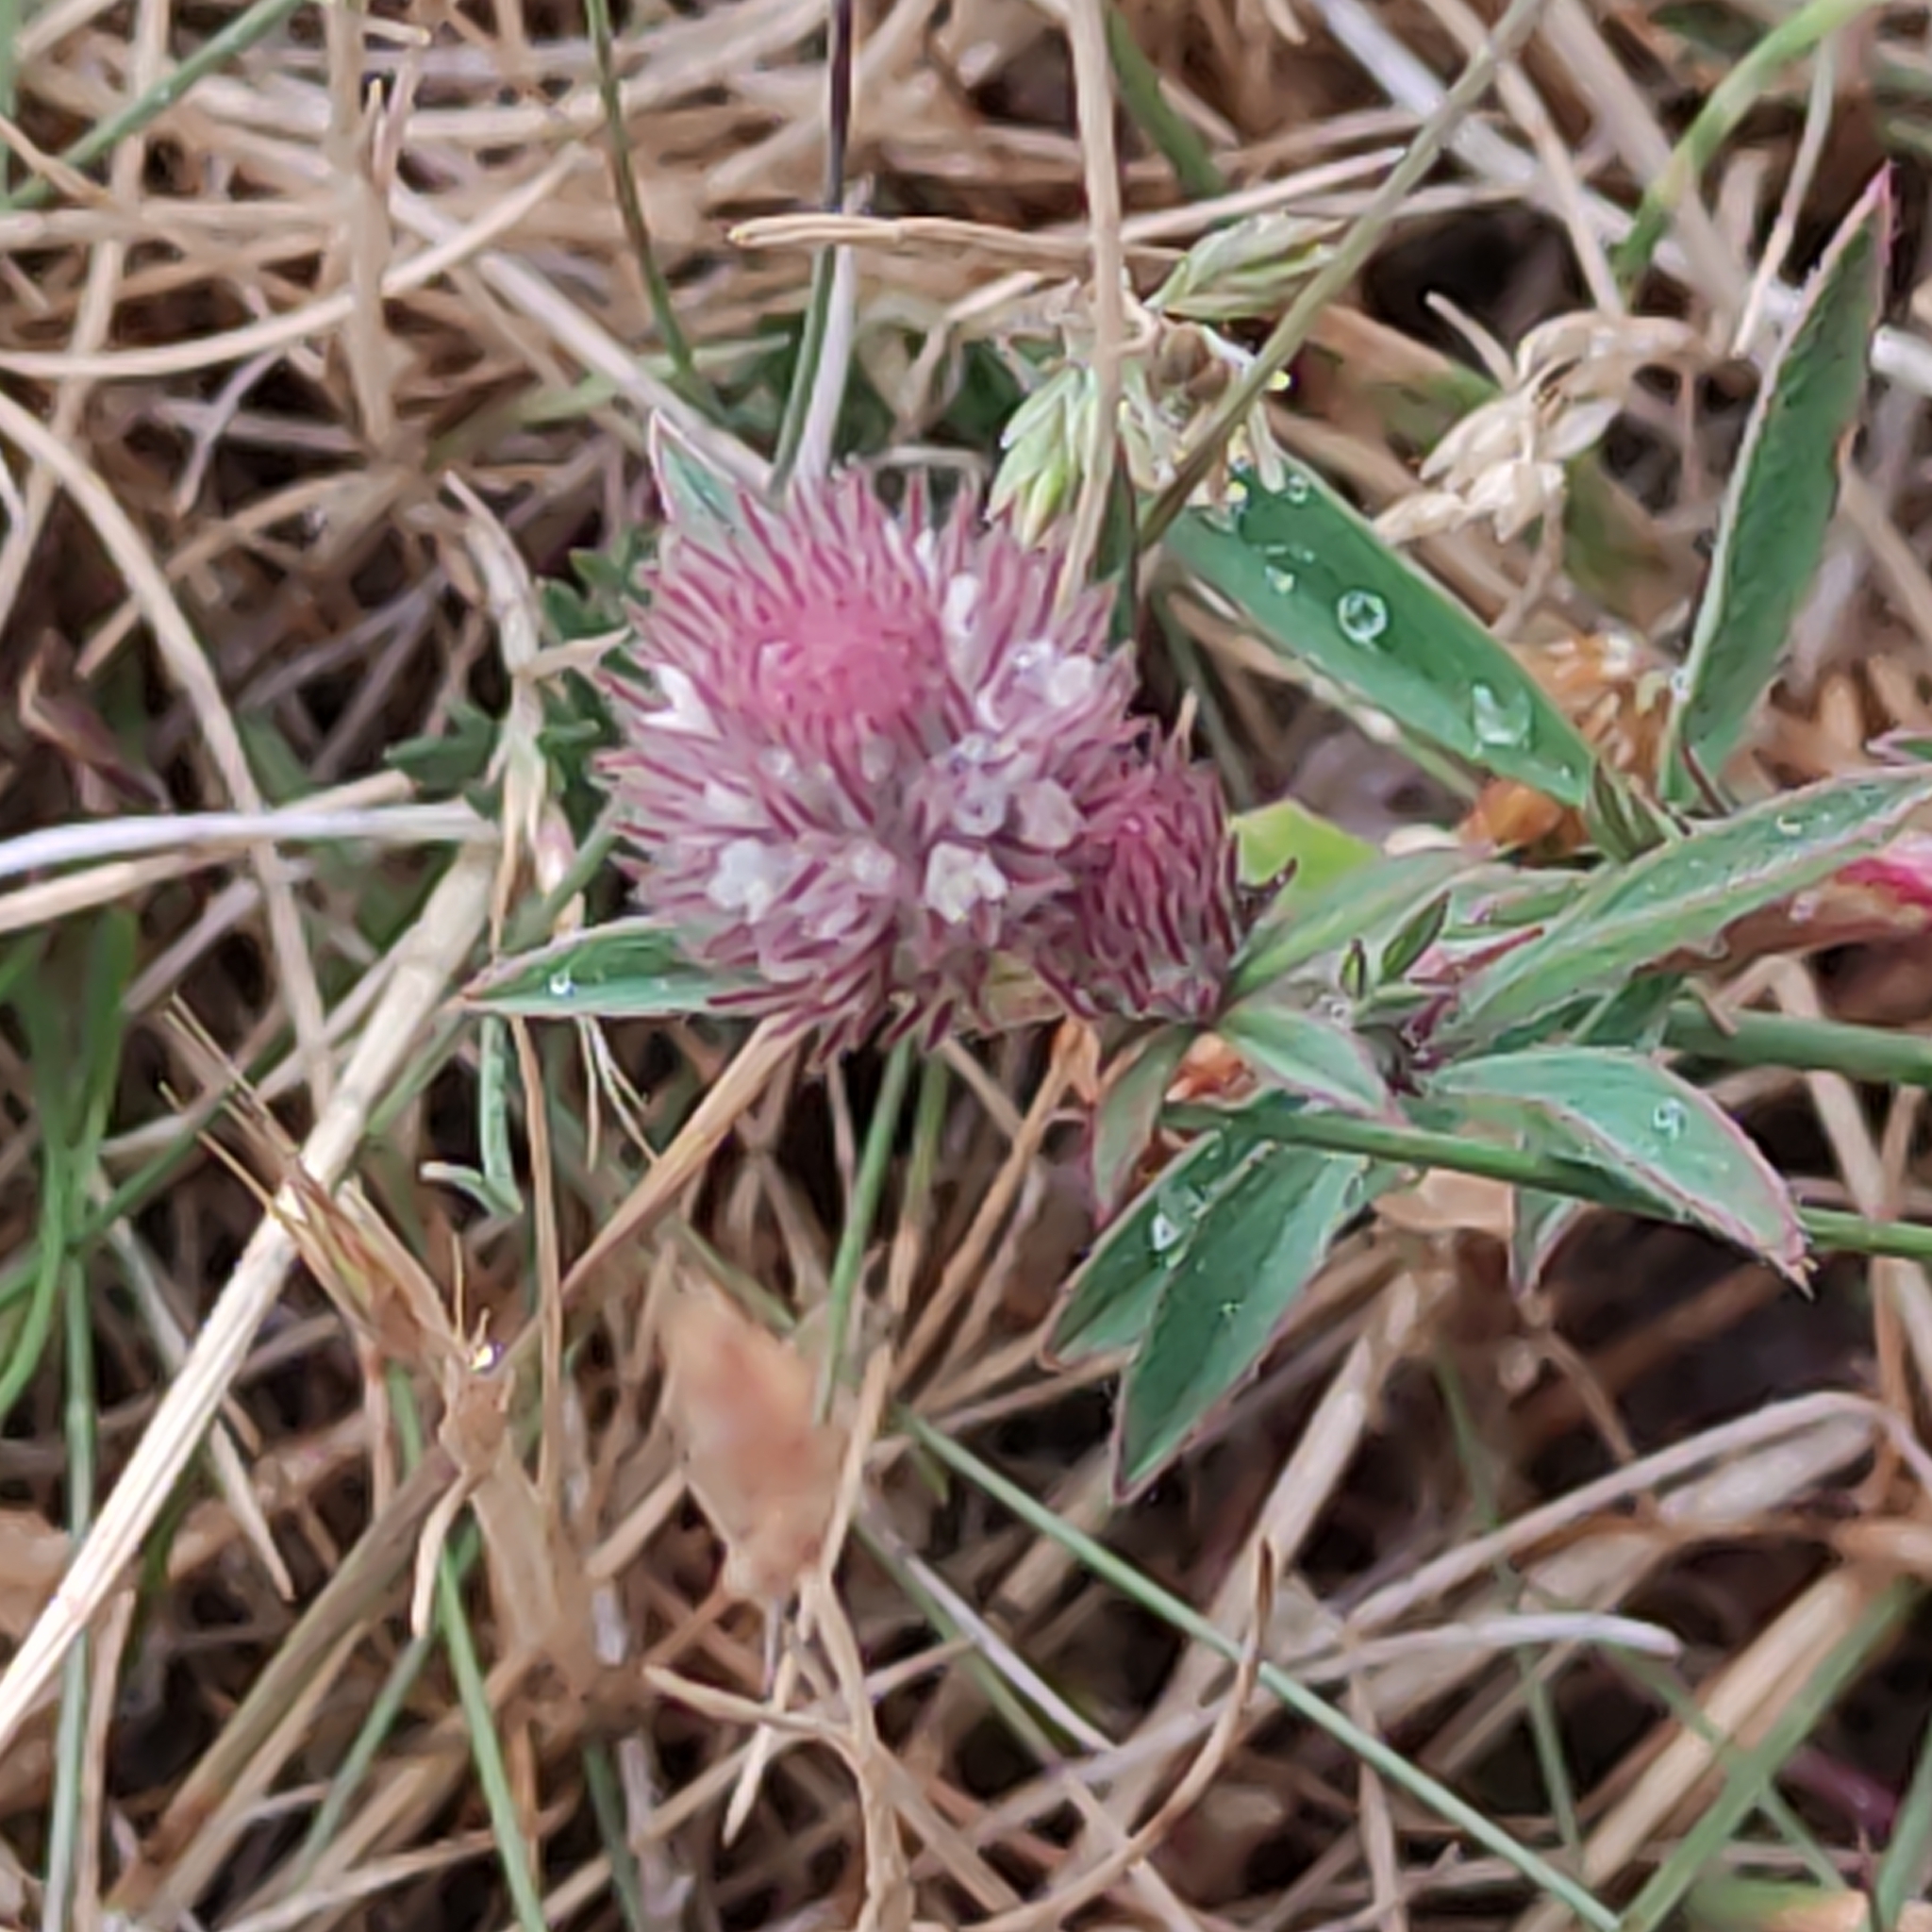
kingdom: Plantae
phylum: Tracheophyta
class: Magnoliopsida
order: Fabales
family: Fabaceae
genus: Trifolium
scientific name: Trifolium arvense
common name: Hare's-foot clover
